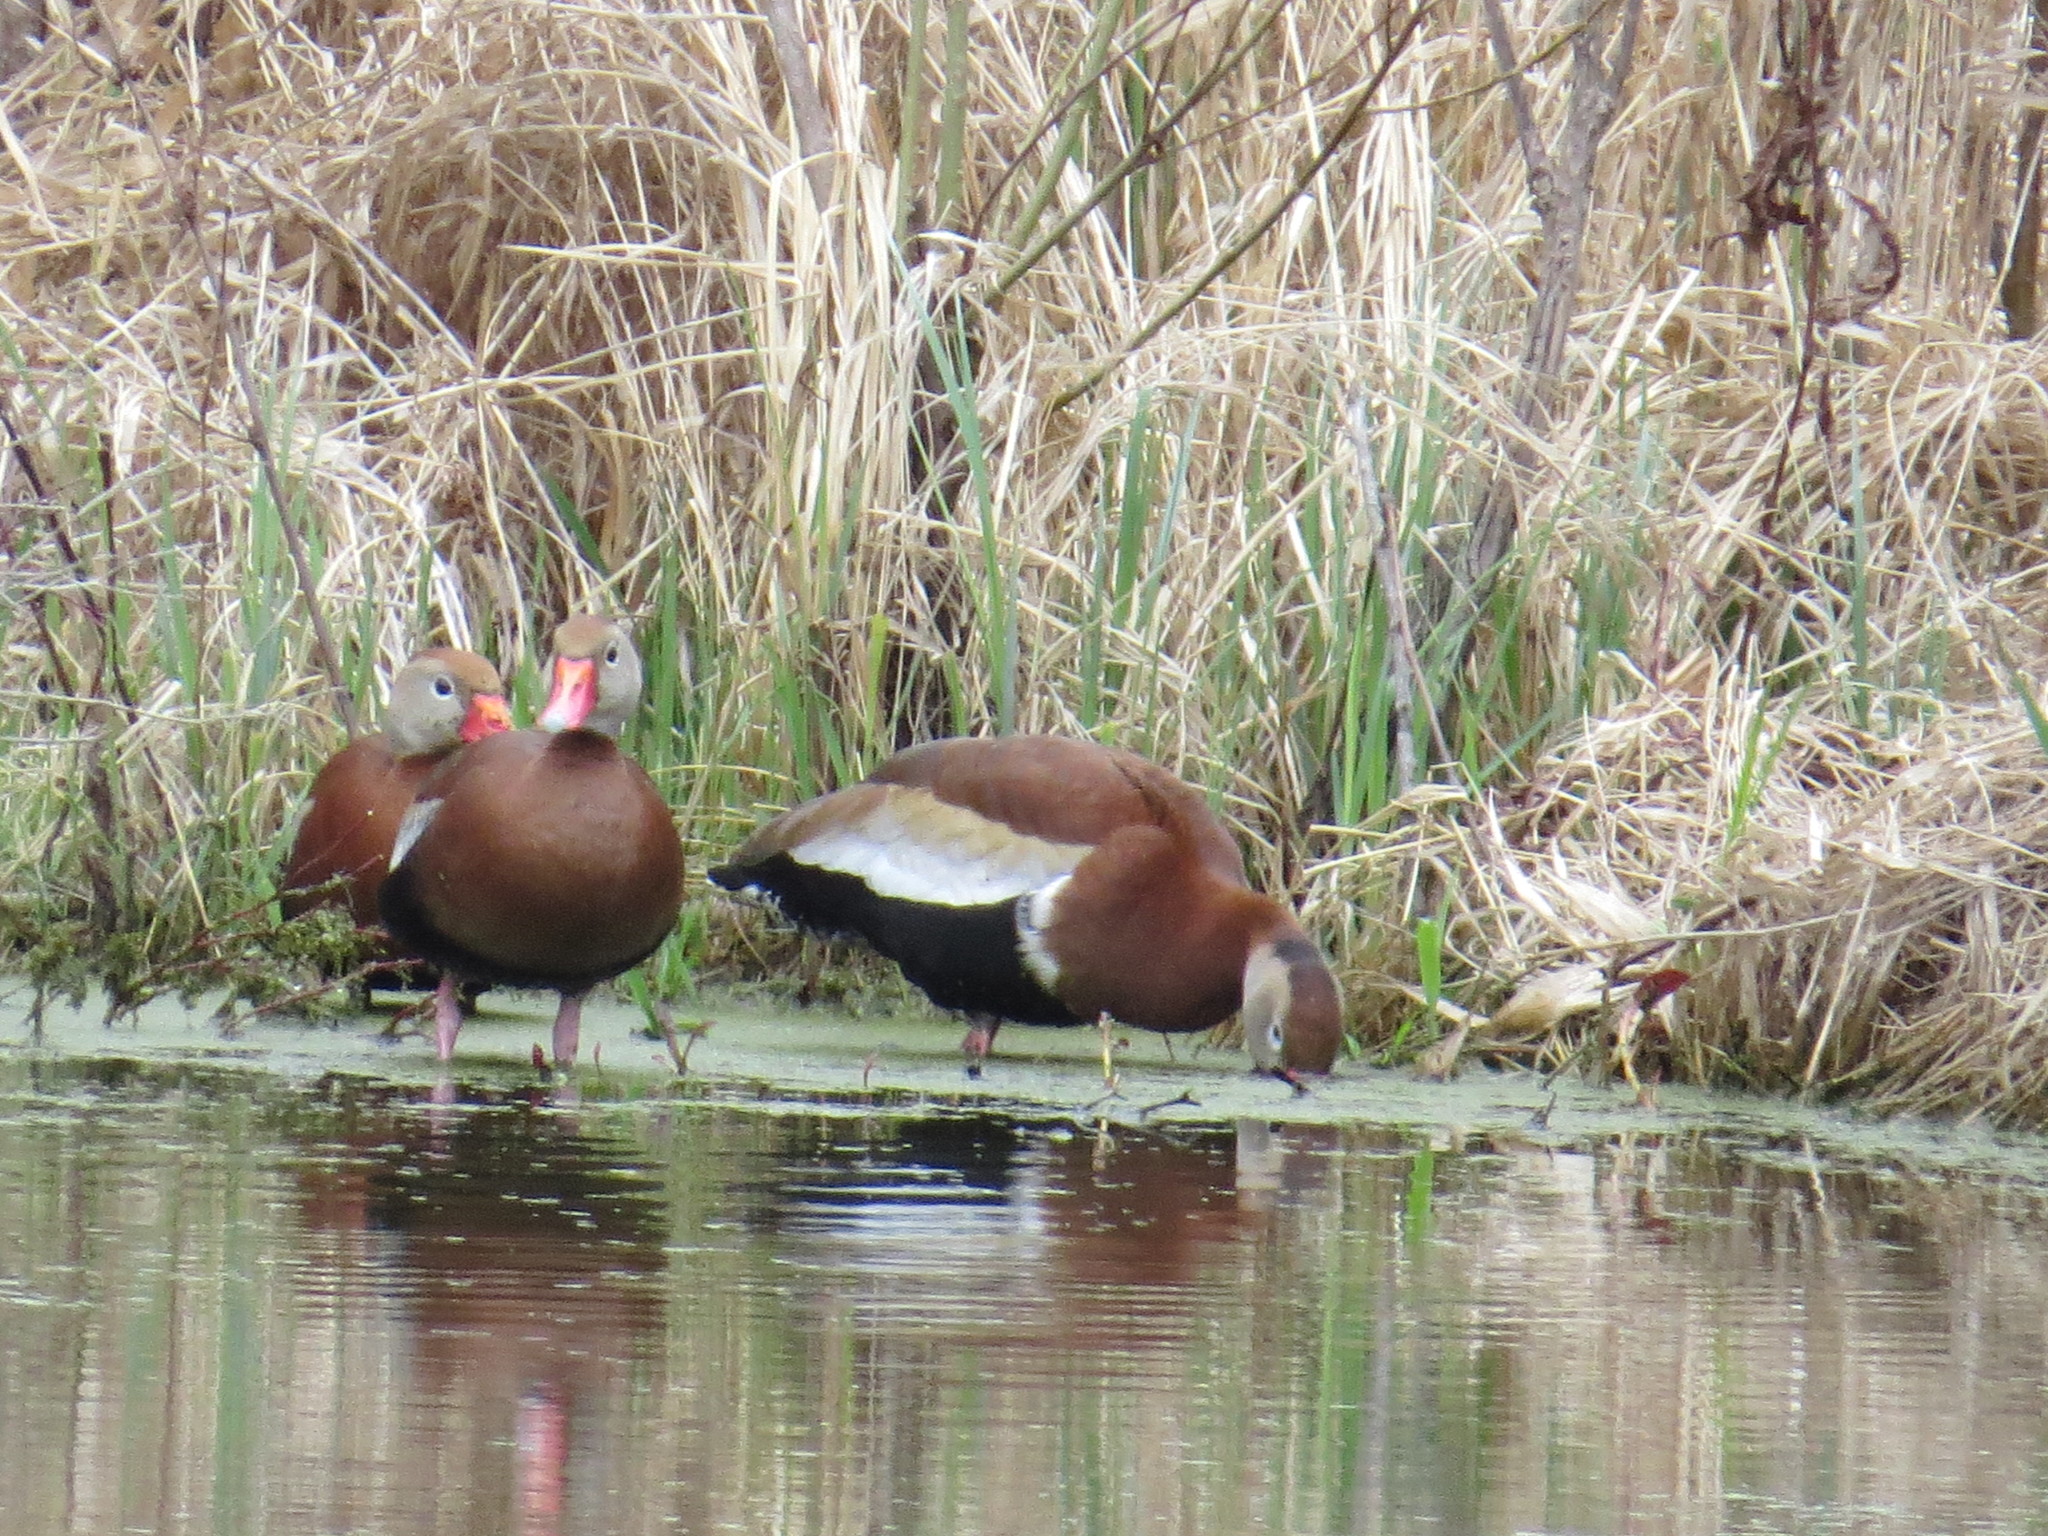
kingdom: Animalia
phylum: Chordata
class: Aves
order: Anseriformes
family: Anatidae
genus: Dendrocygna
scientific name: Dendrocygna autumnalis
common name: Black-bellied whistling duck
